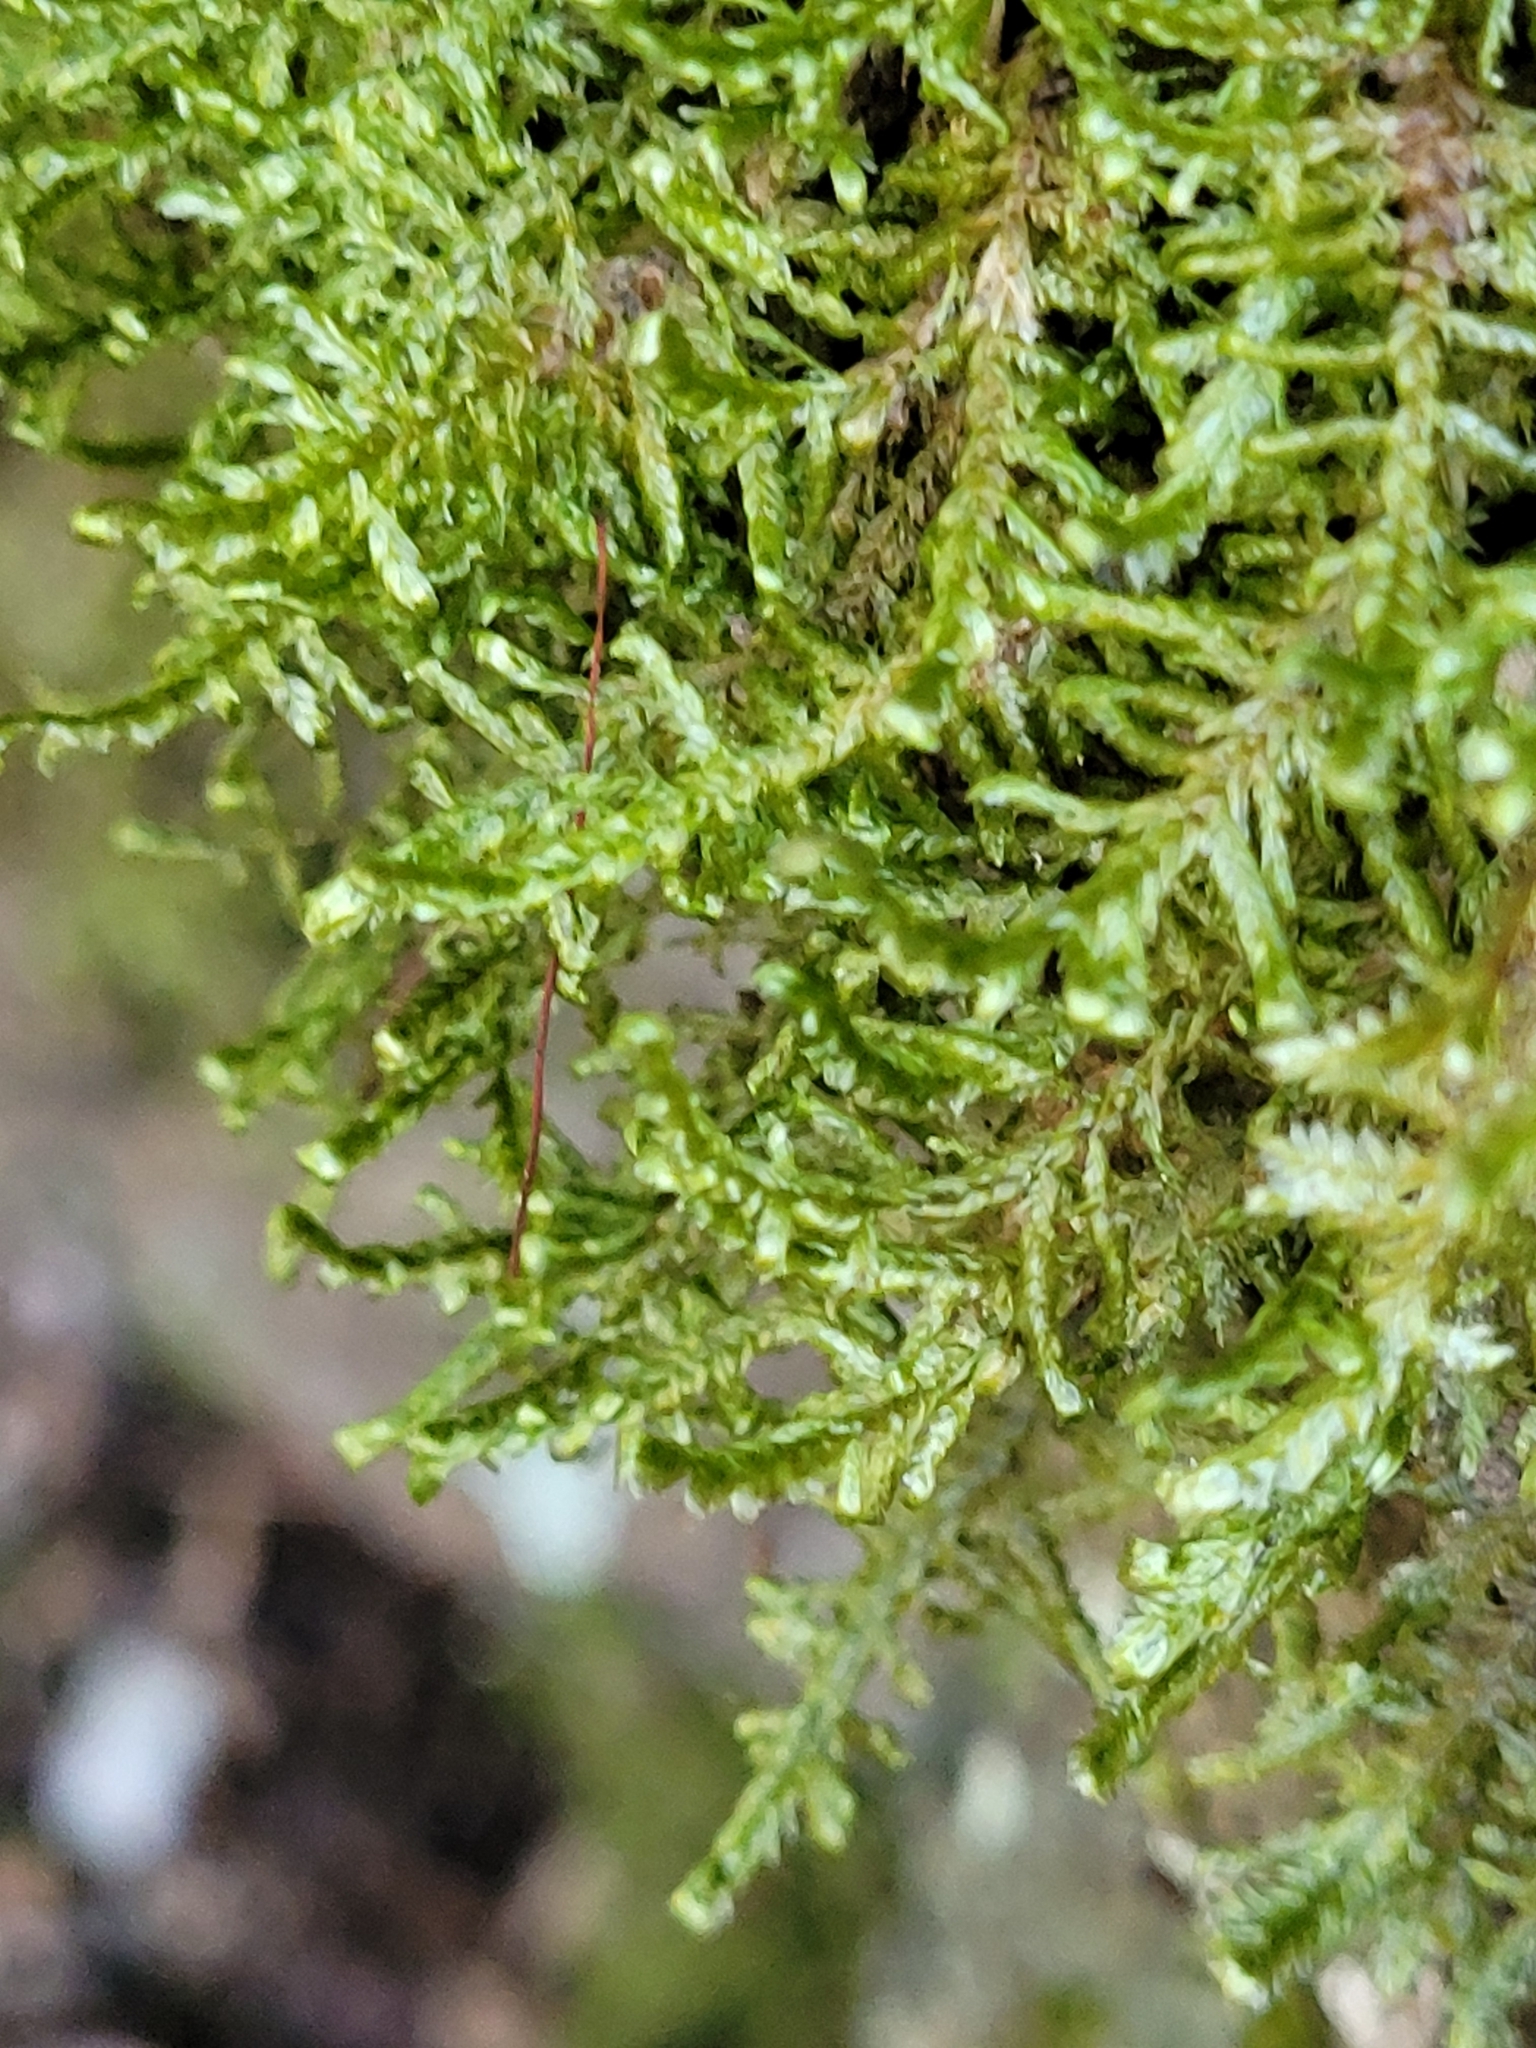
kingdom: Plantae
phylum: Bryophyta
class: Bryopsida
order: Hypnales
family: Neckeraceae
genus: Alleniella
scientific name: Alleniella complanata
